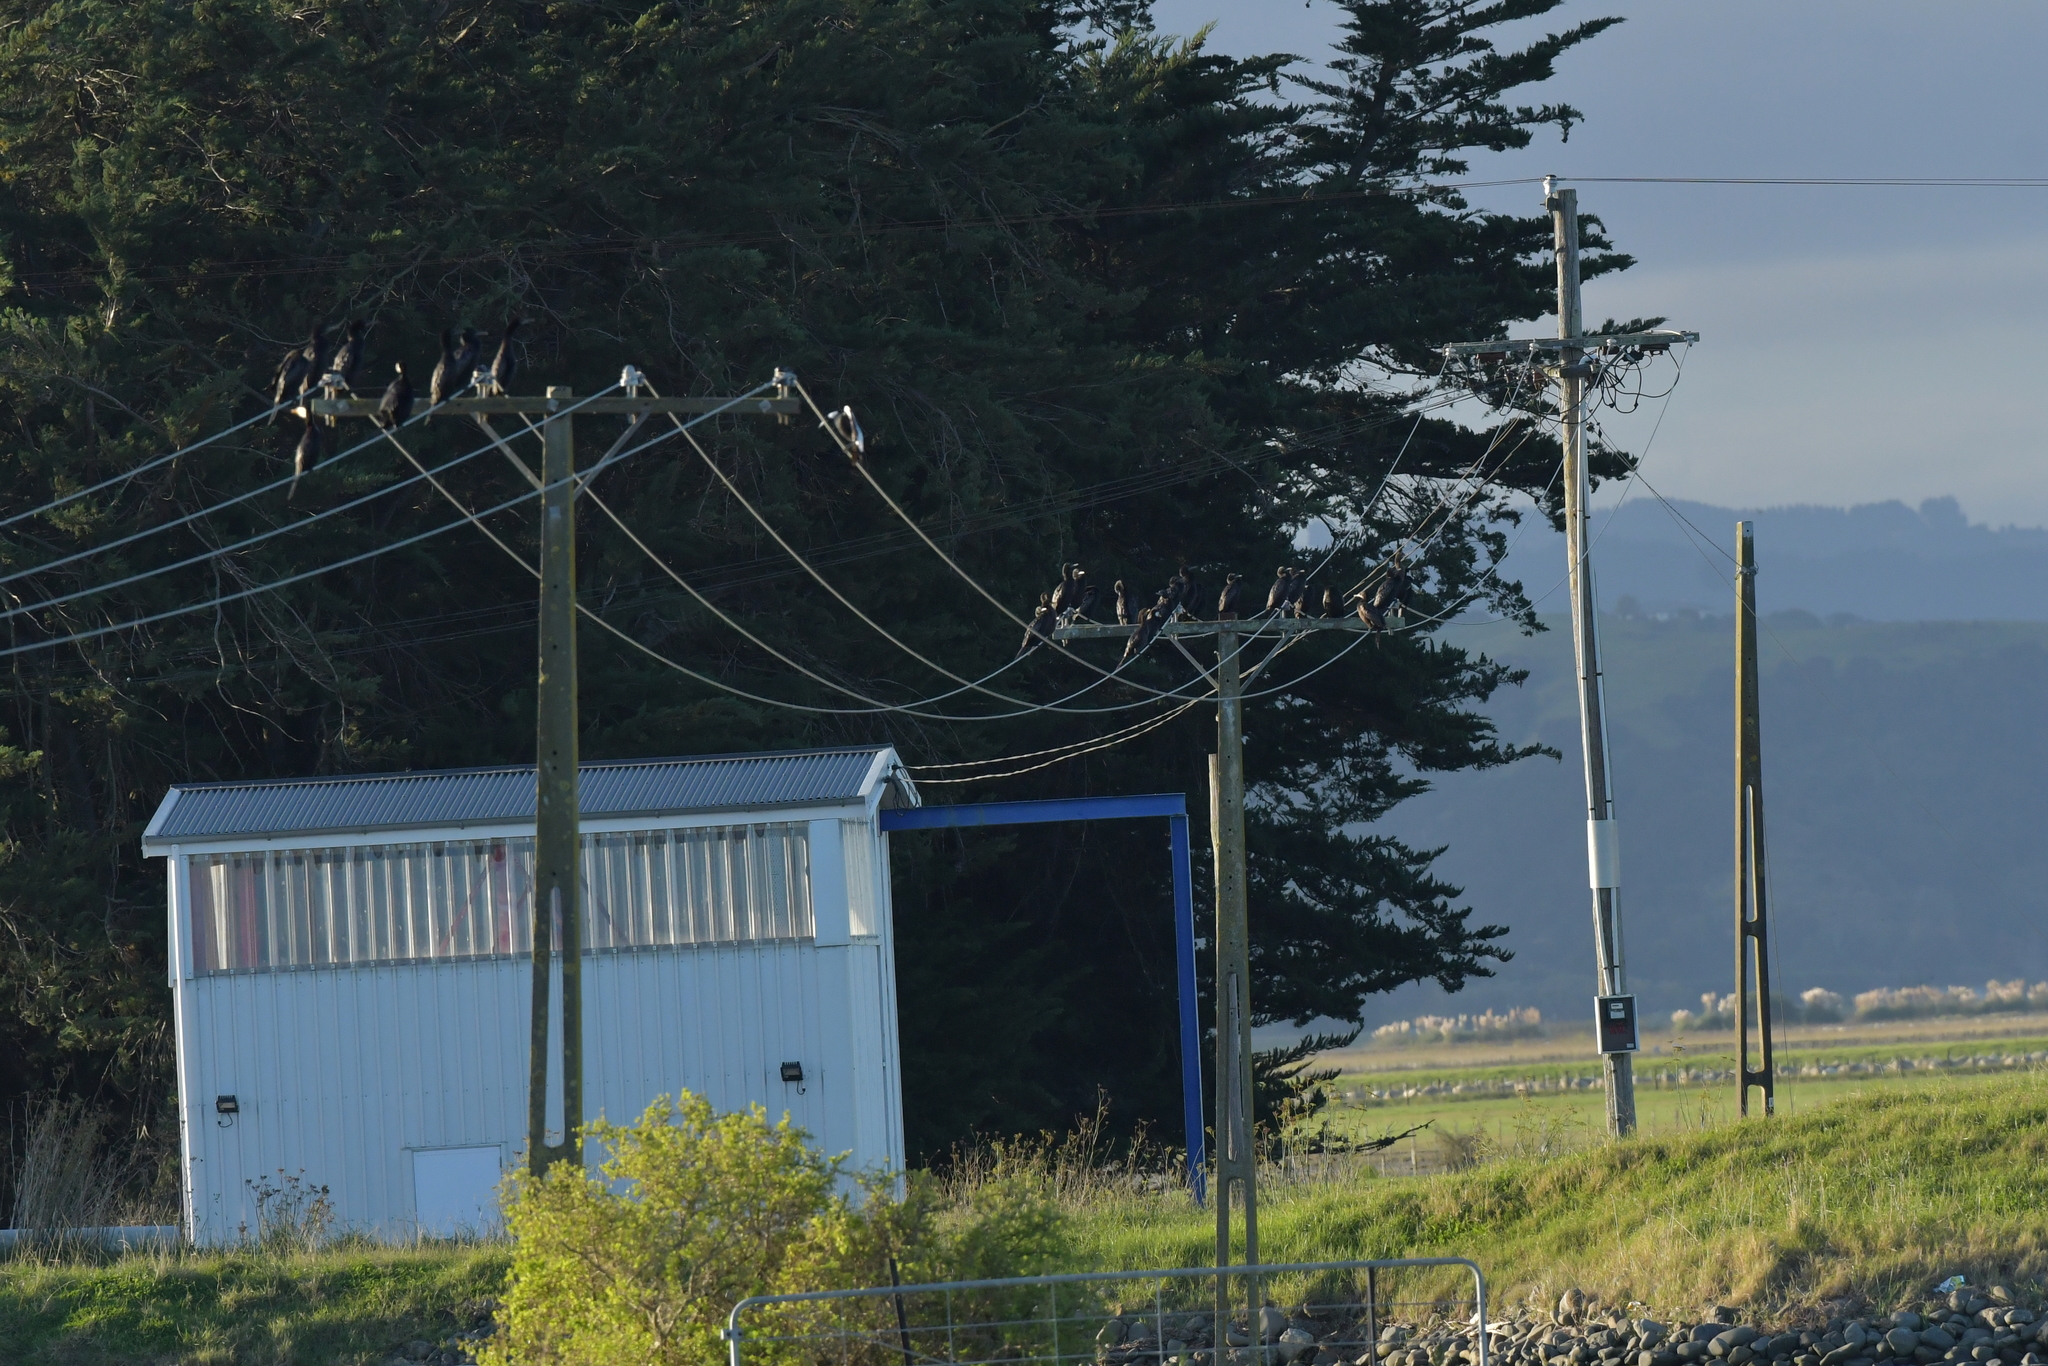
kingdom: Animalia
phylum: Chordata
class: Aves
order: Suliformes
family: Phalacrocoracidae
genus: Phalacrocorax
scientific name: Phalacrocorax sulcirostris
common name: Little black cormorant
